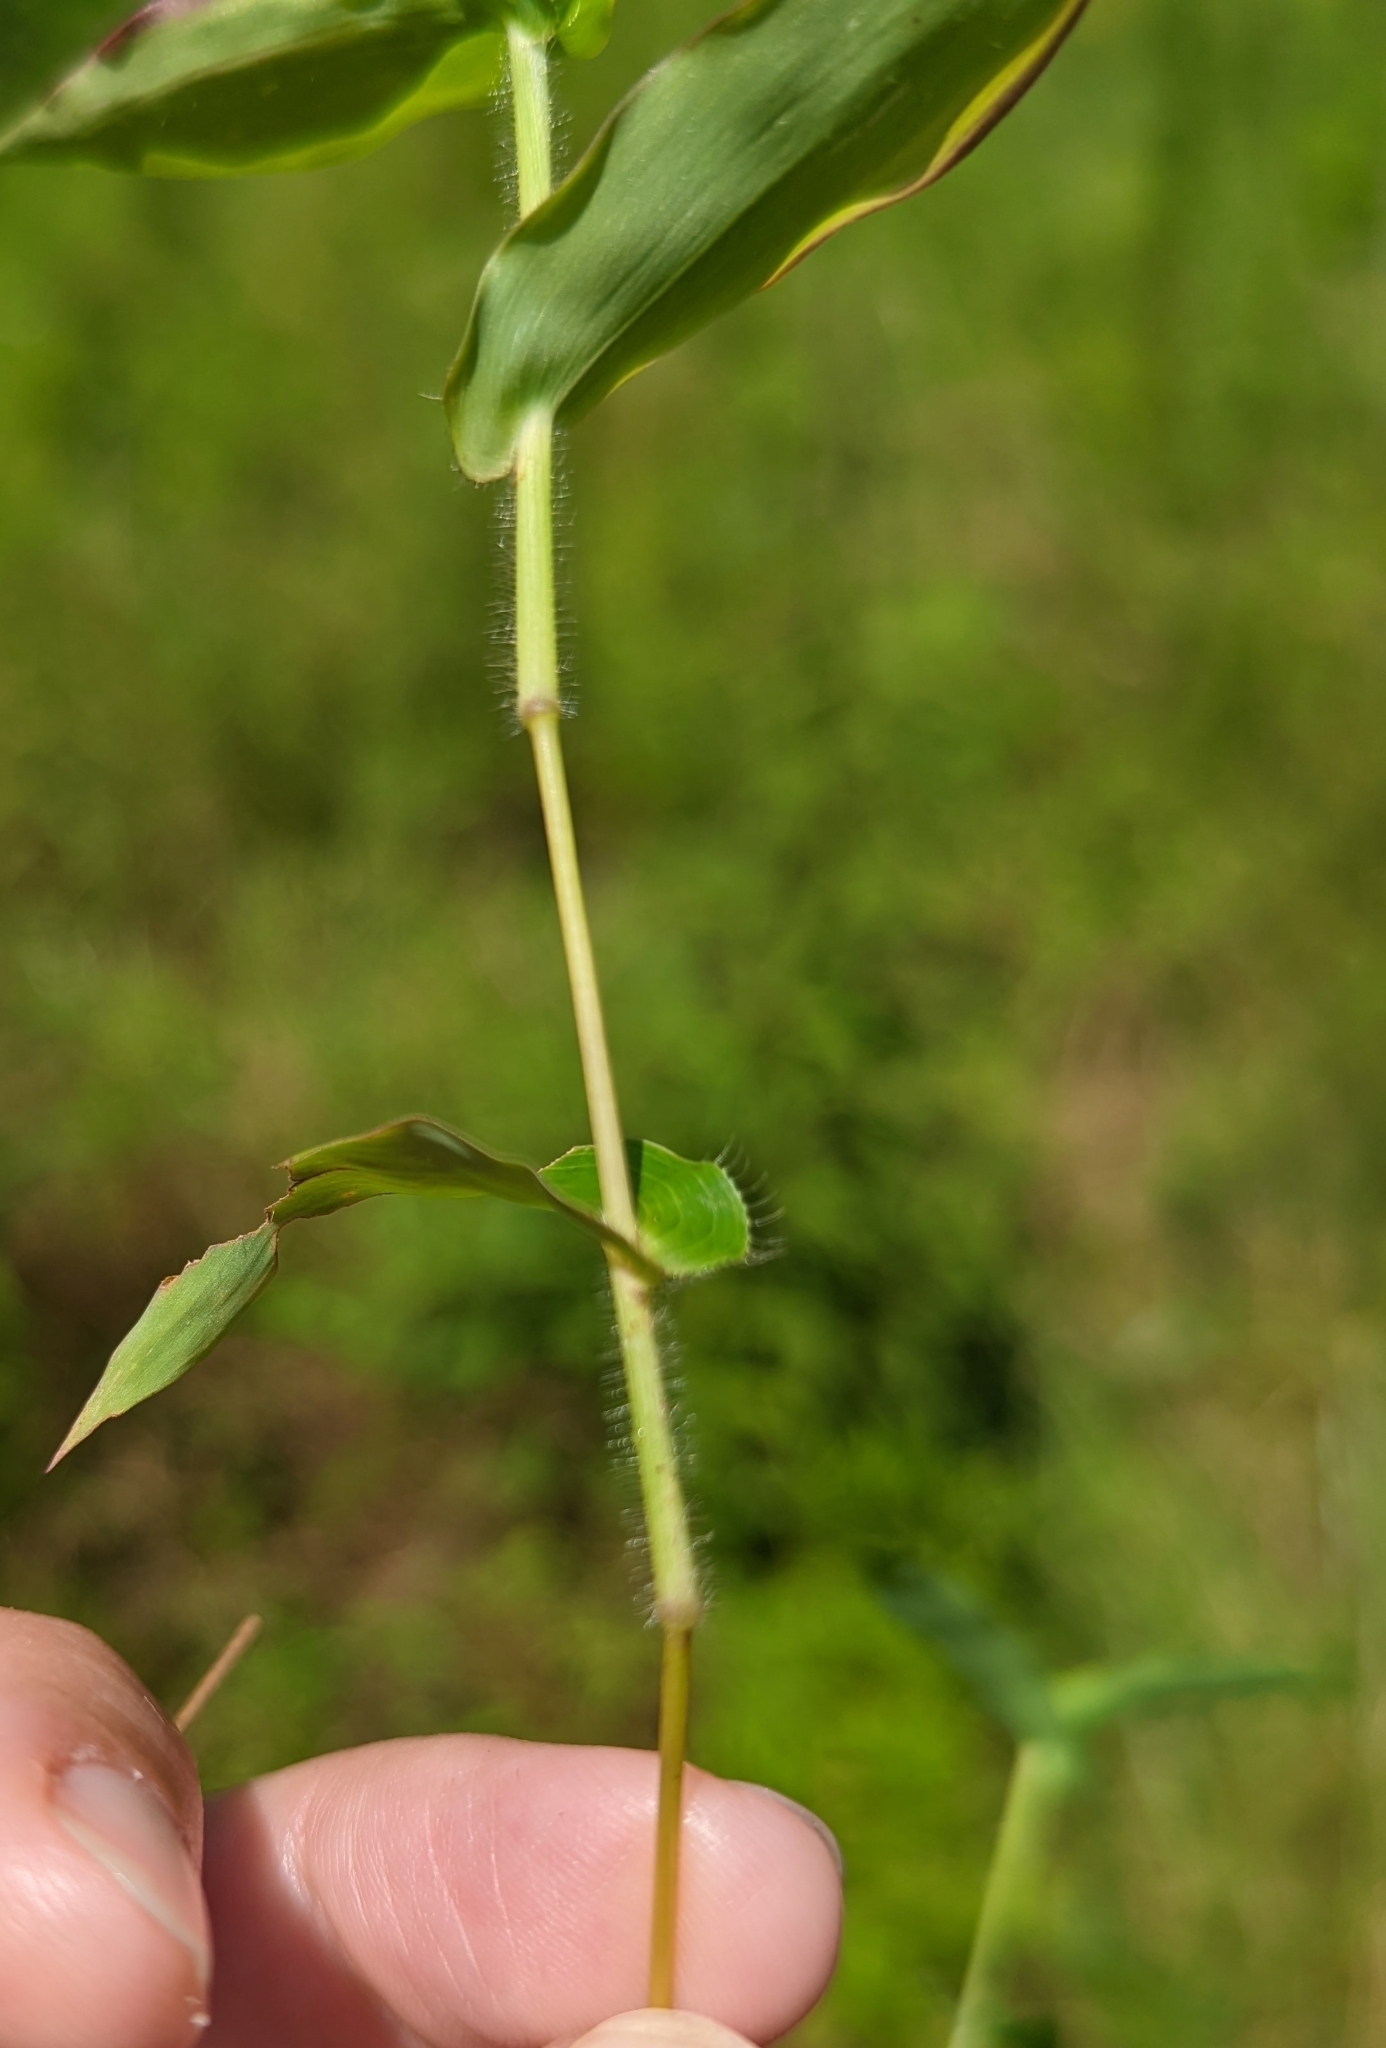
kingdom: Plantae
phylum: Tracheophyta
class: Liliopsida
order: Poales
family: Poaceae
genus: Arthraxon
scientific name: Arthraxon hispidus
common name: Small carpgrass
